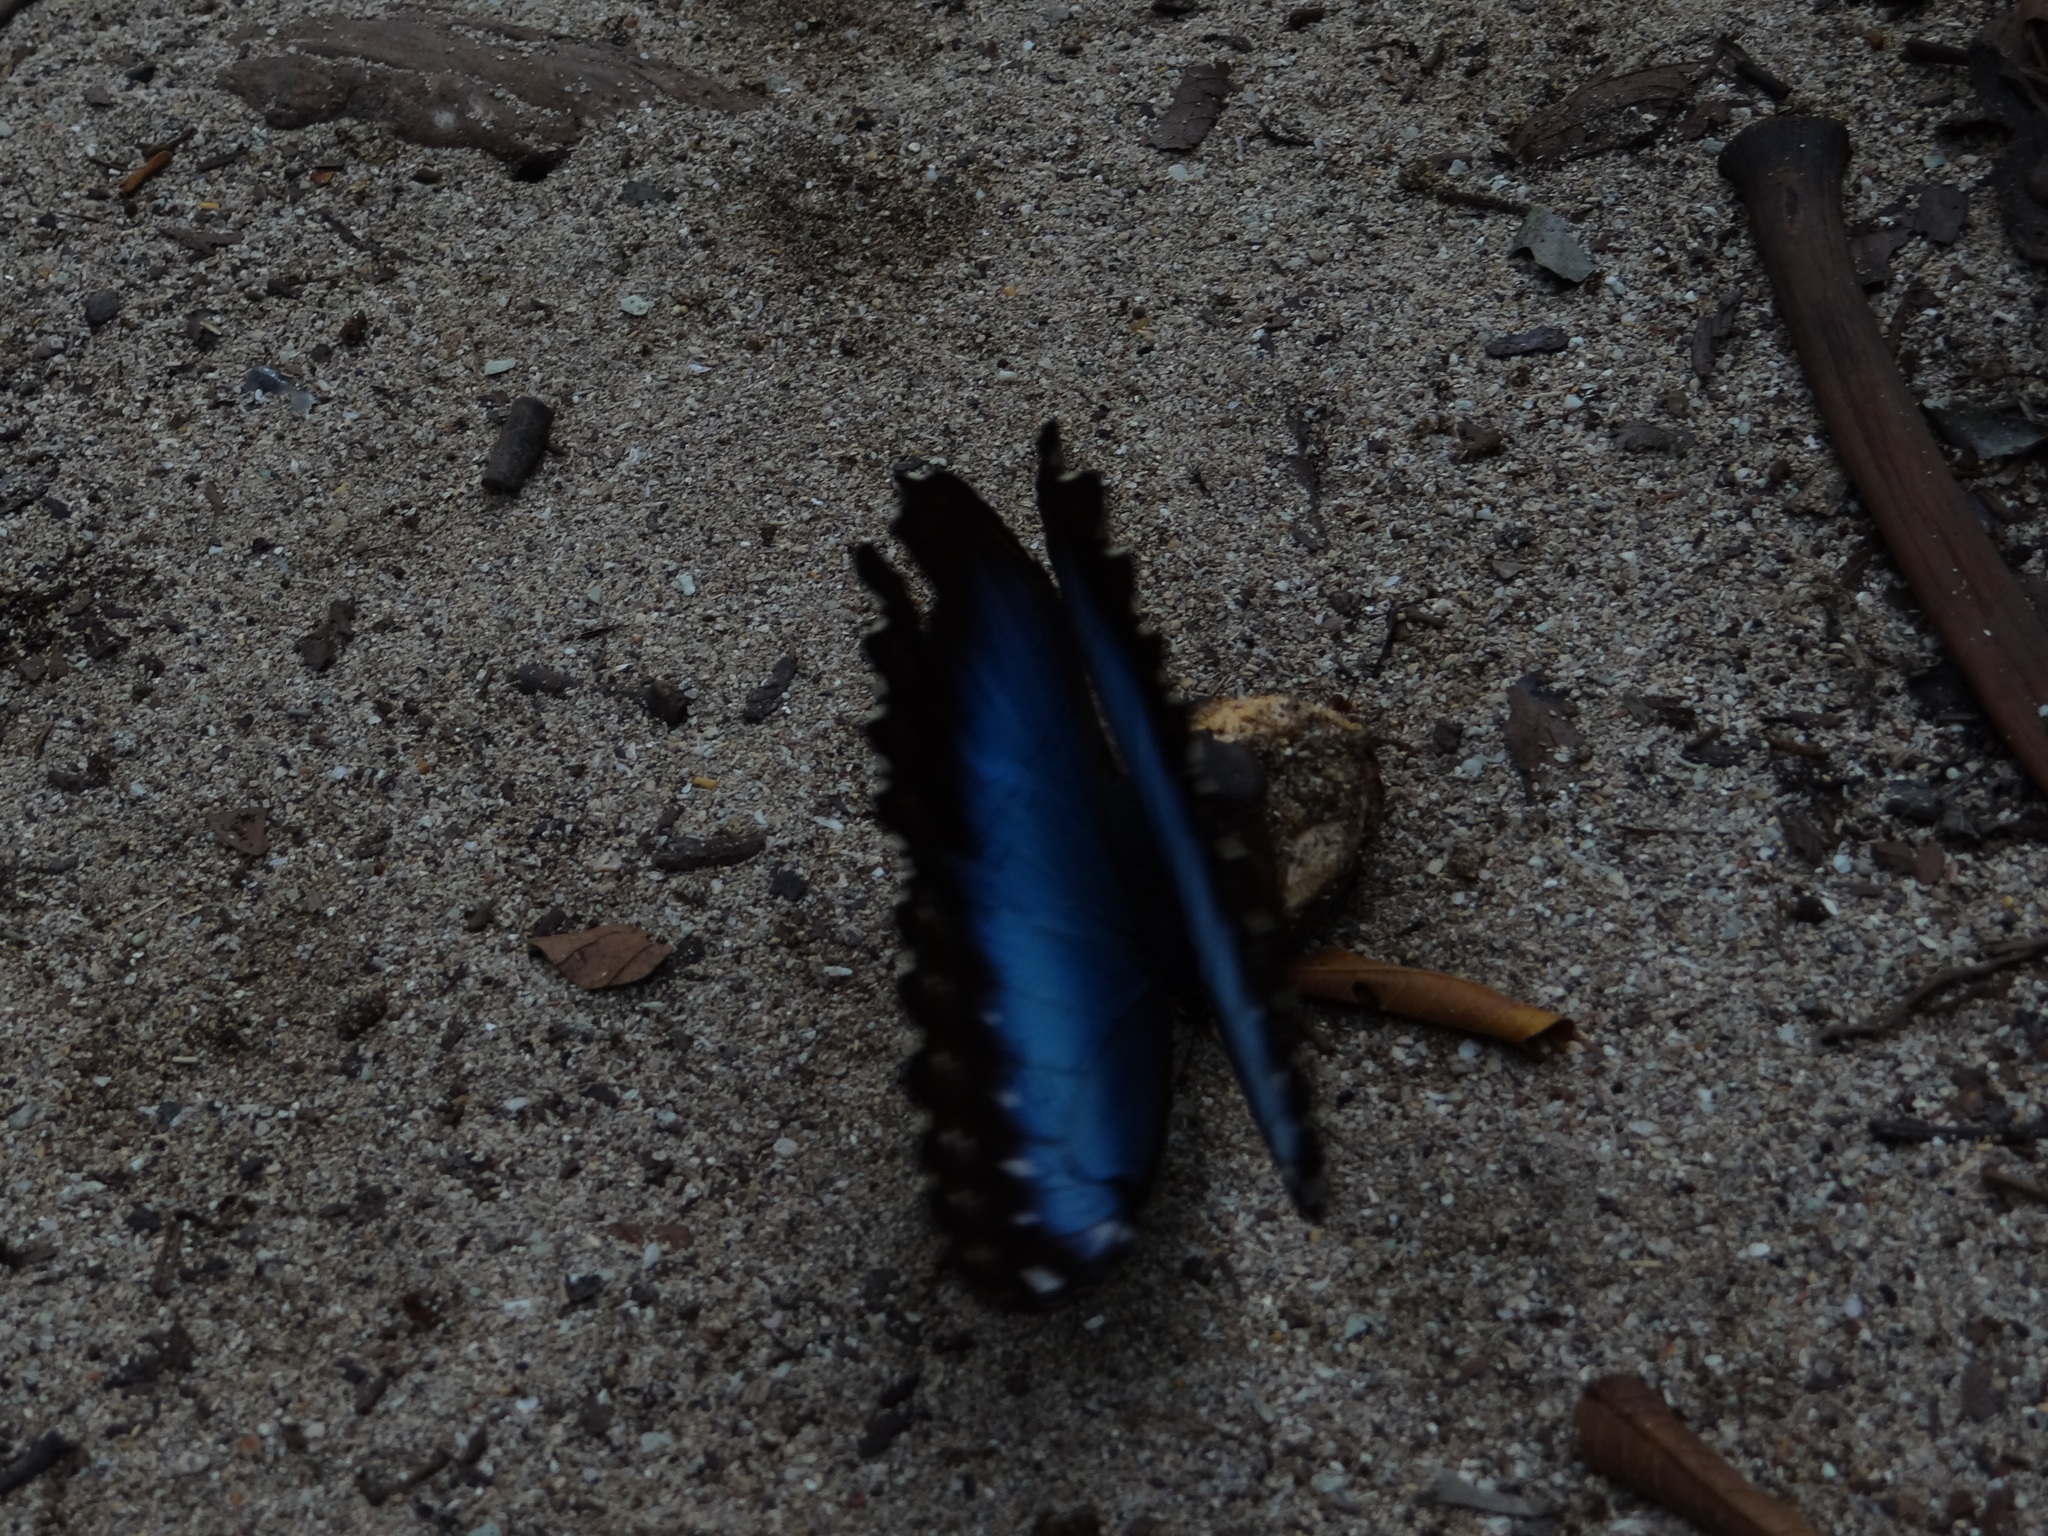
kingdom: Animalia
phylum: Arthropoda
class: Insecta
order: Lepidoptera
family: Nymphalidae
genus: Morpho
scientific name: Morpho helenor
